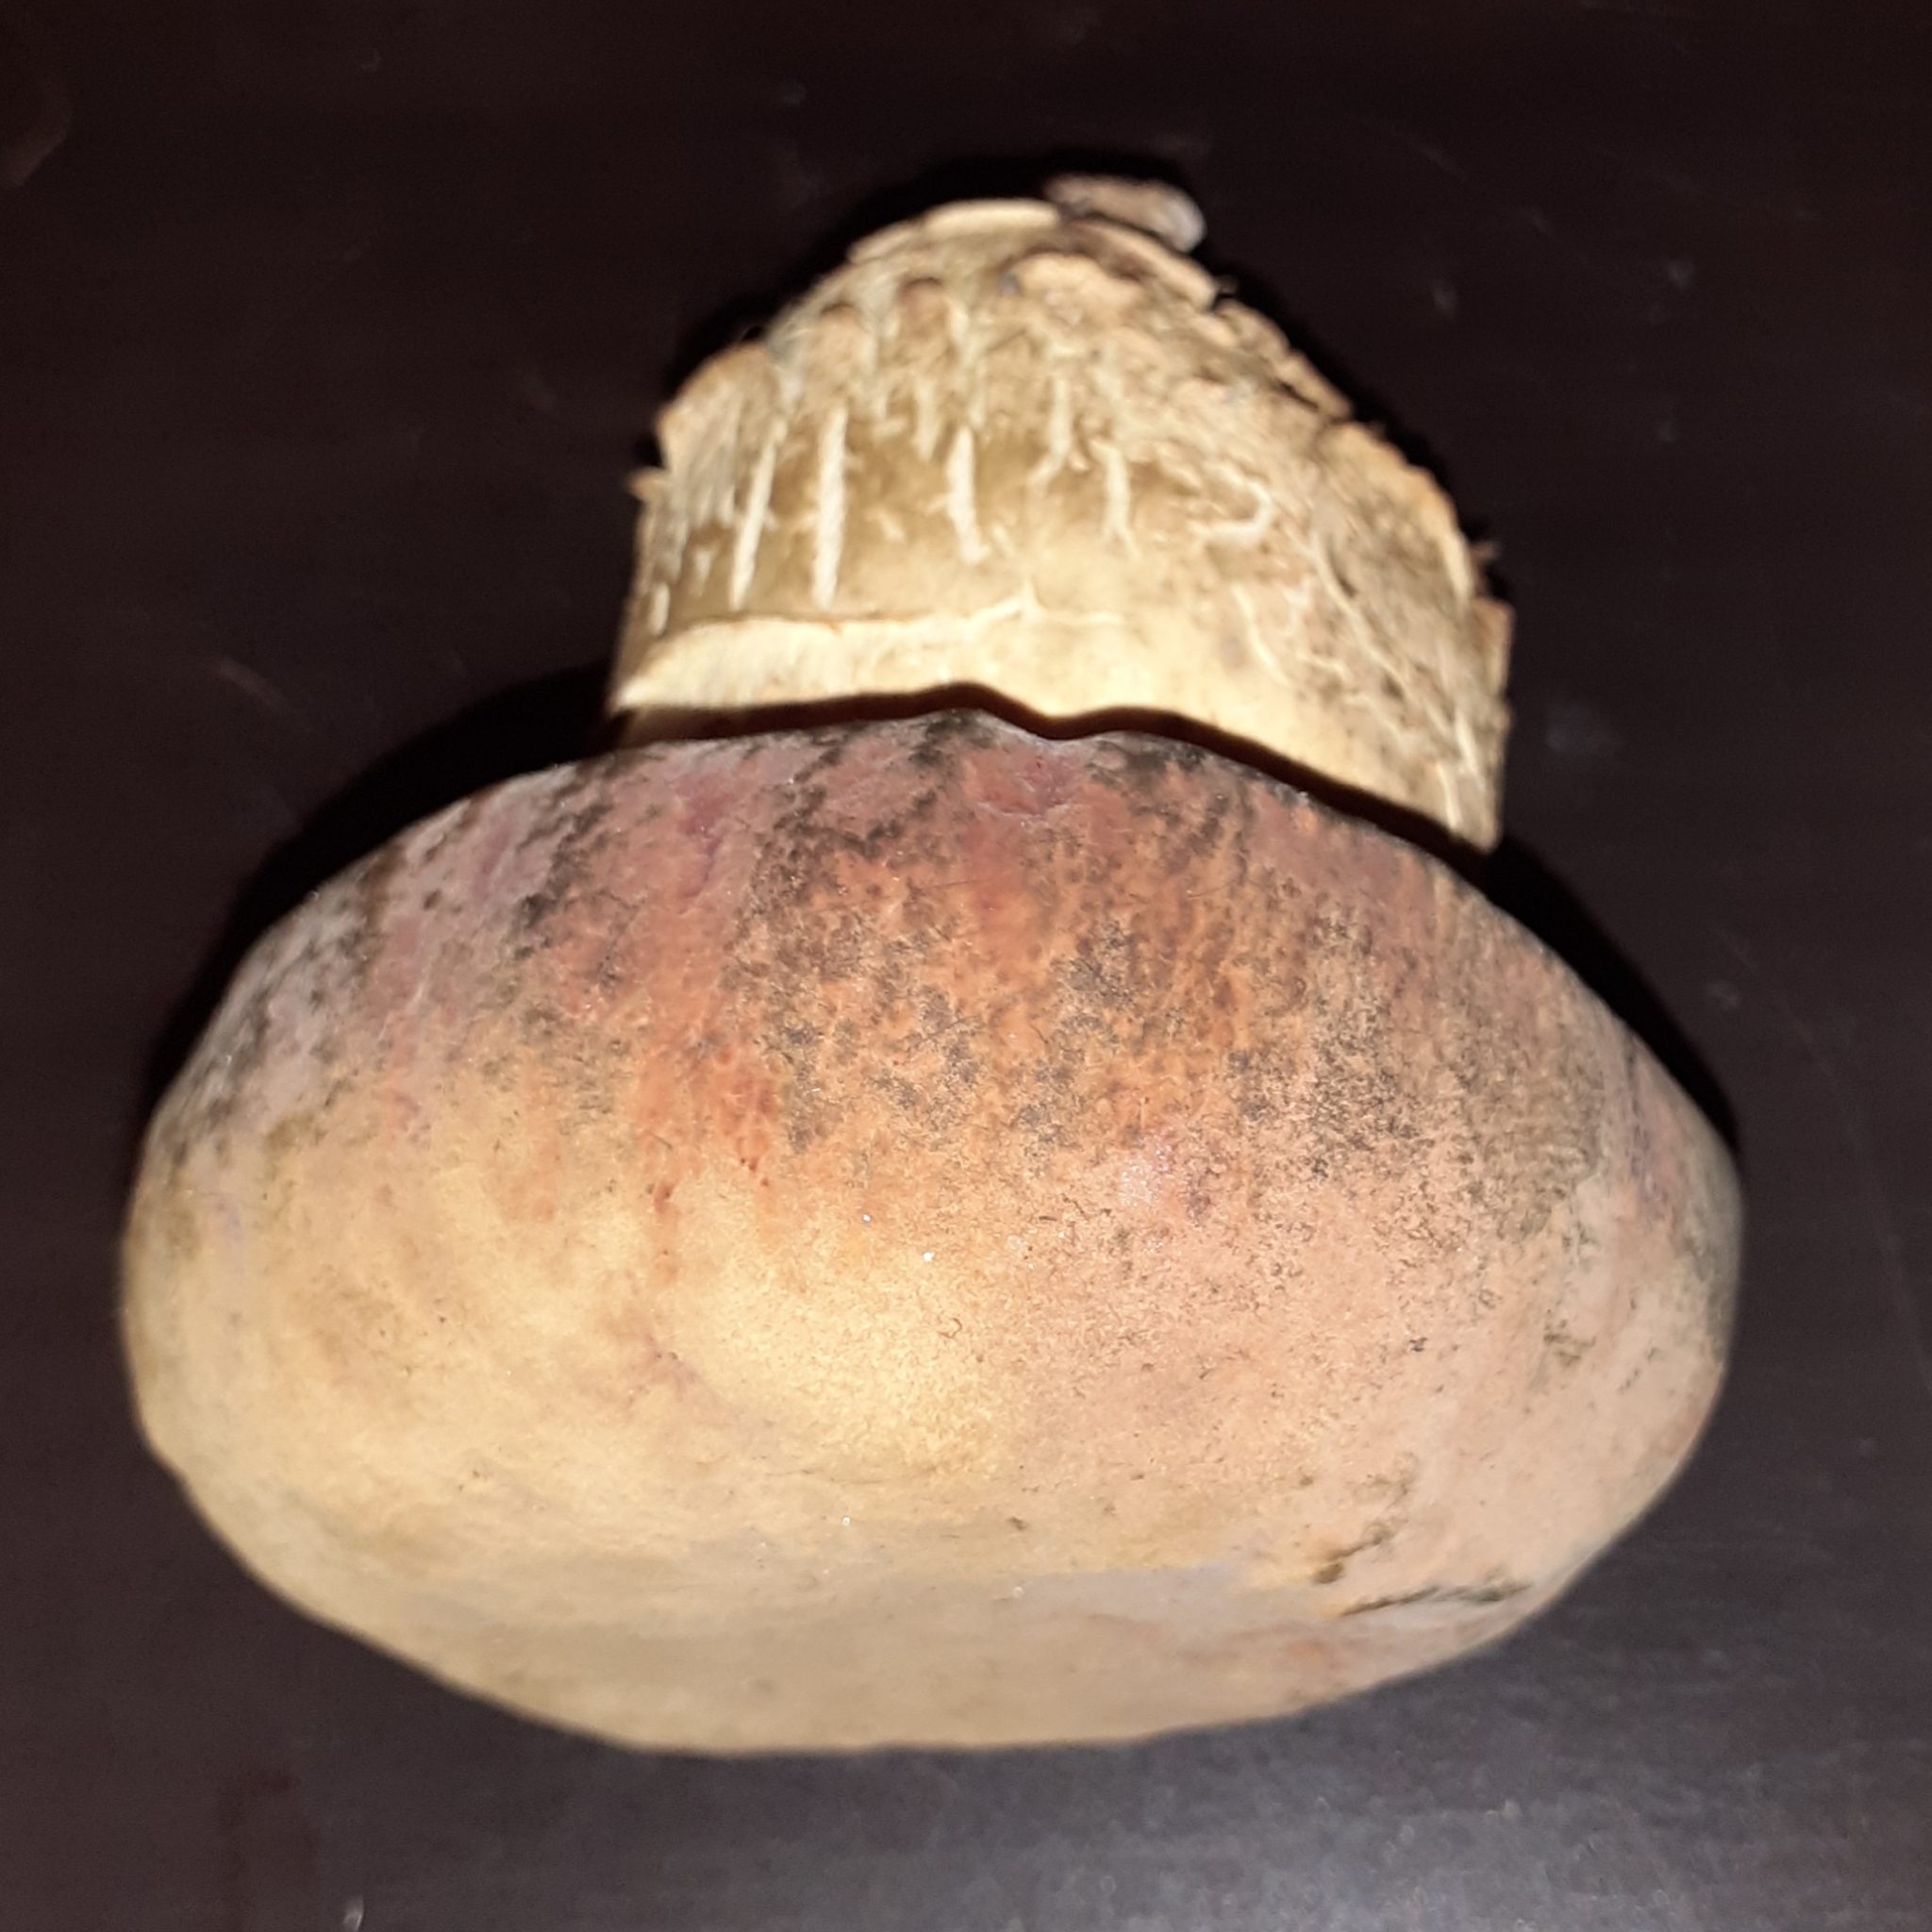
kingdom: Fungi
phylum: Basidiomycota
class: Agaricomycetes
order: Boletales
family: Boletaceae
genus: Suillellus
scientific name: Suillellus queletii
